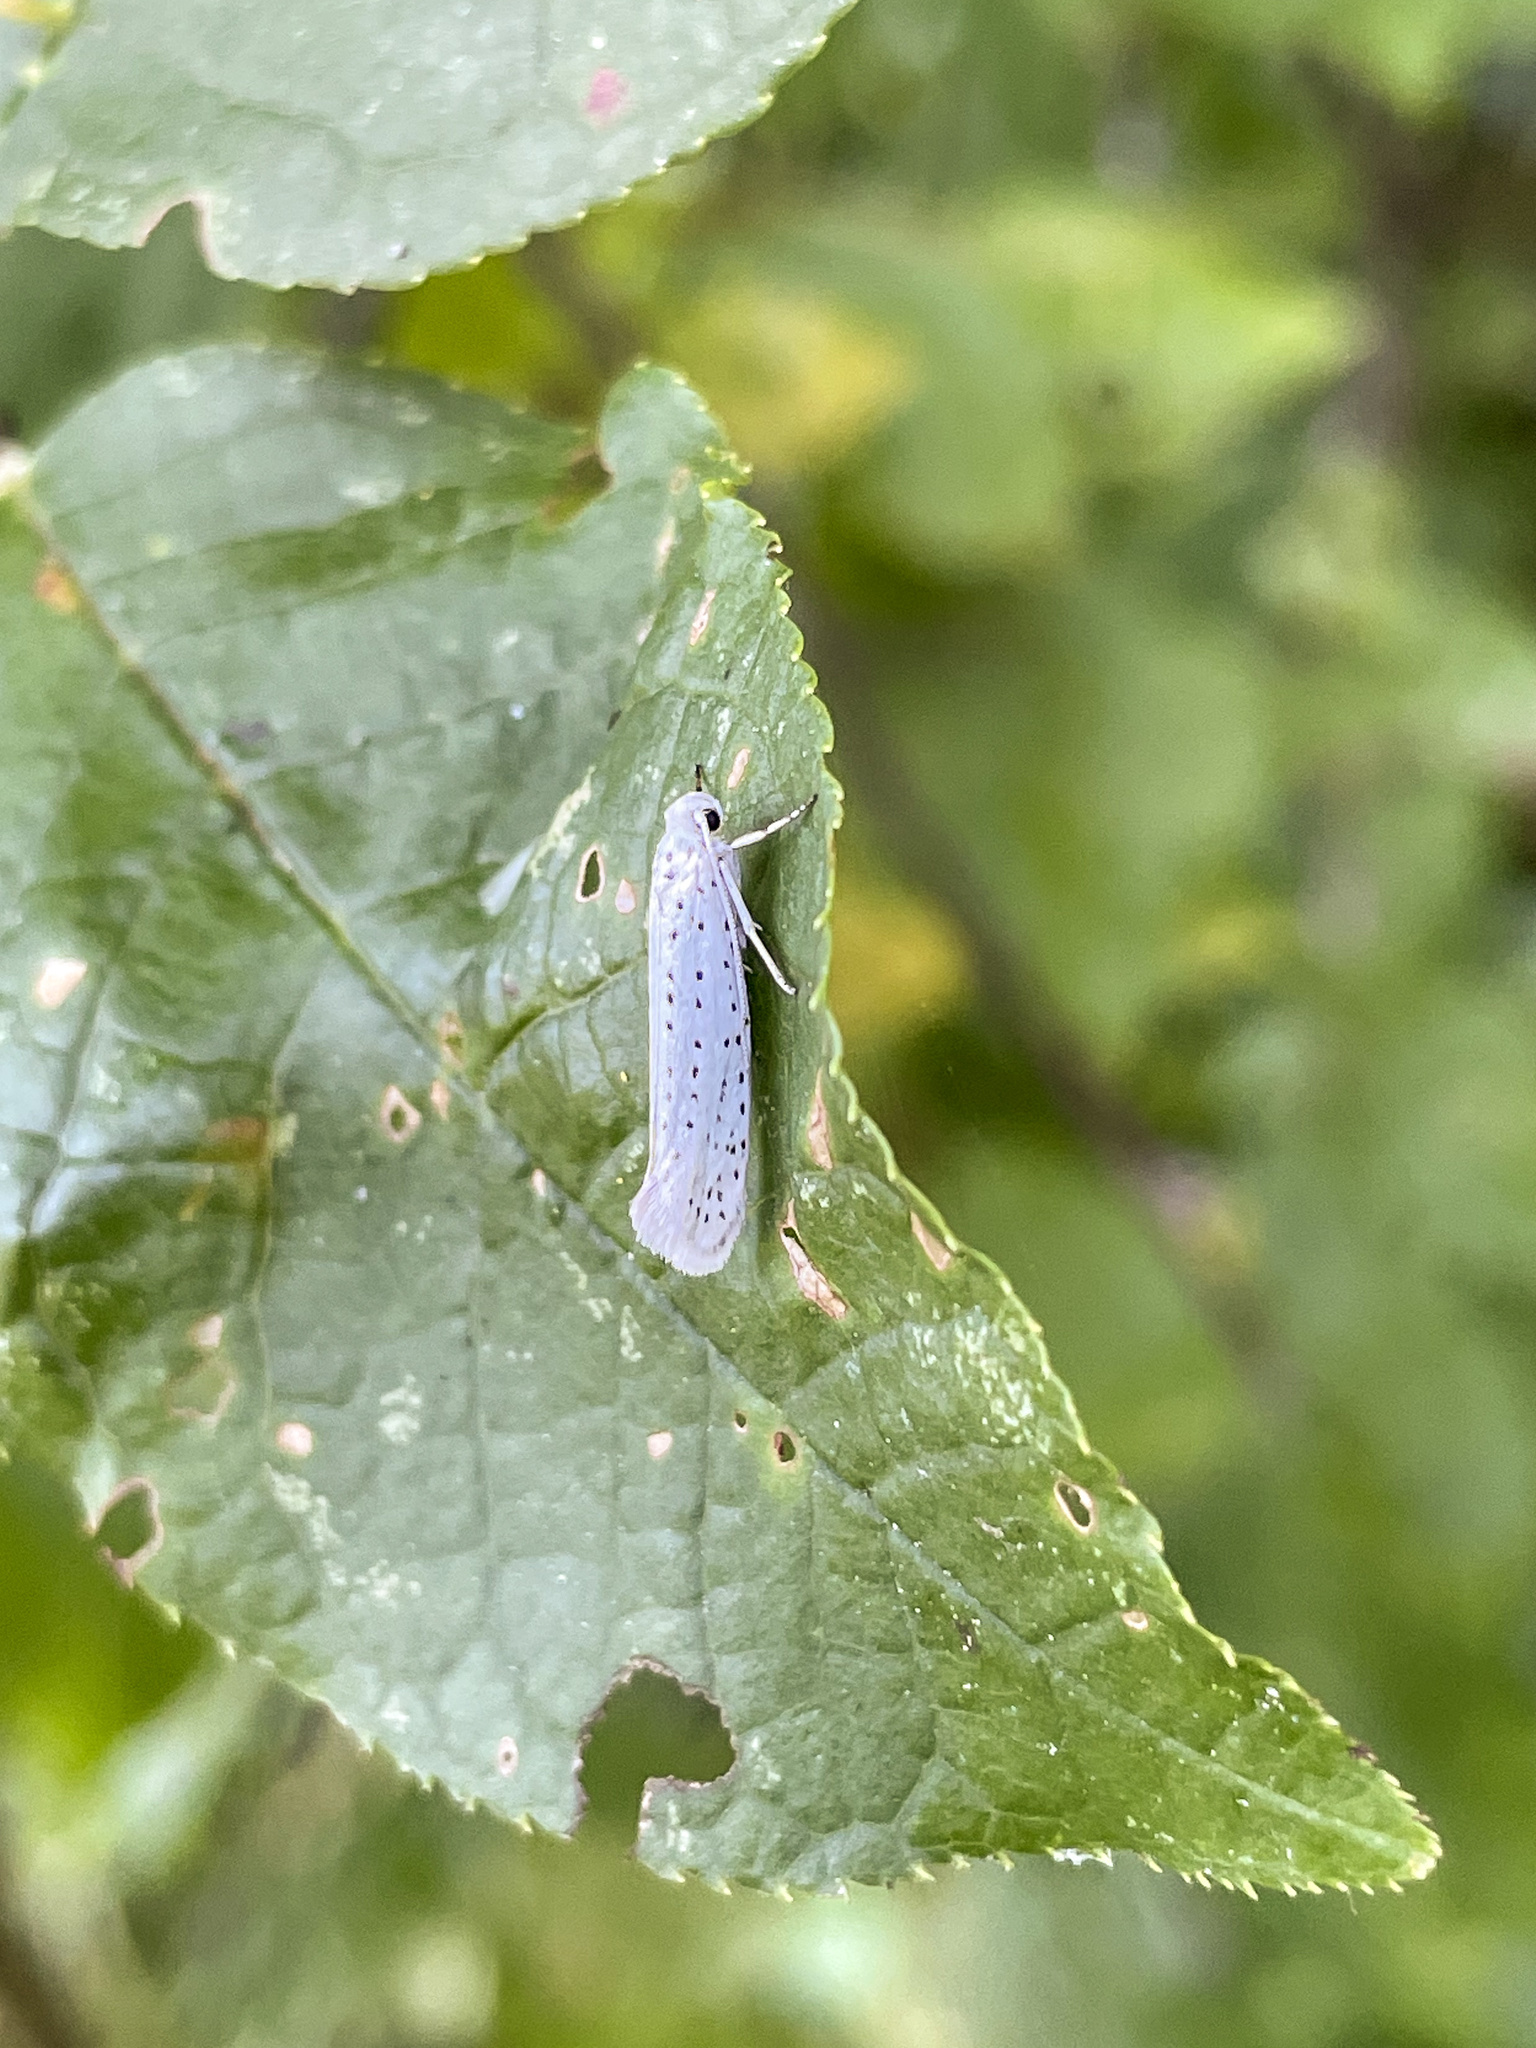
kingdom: Animalia
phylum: Arthropoda
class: Insecta
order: Lepidoptera
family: Yponomeutidae
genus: Yponomeuta
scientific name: Yponomeuta evonymella
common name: Bird-cherry ermine
